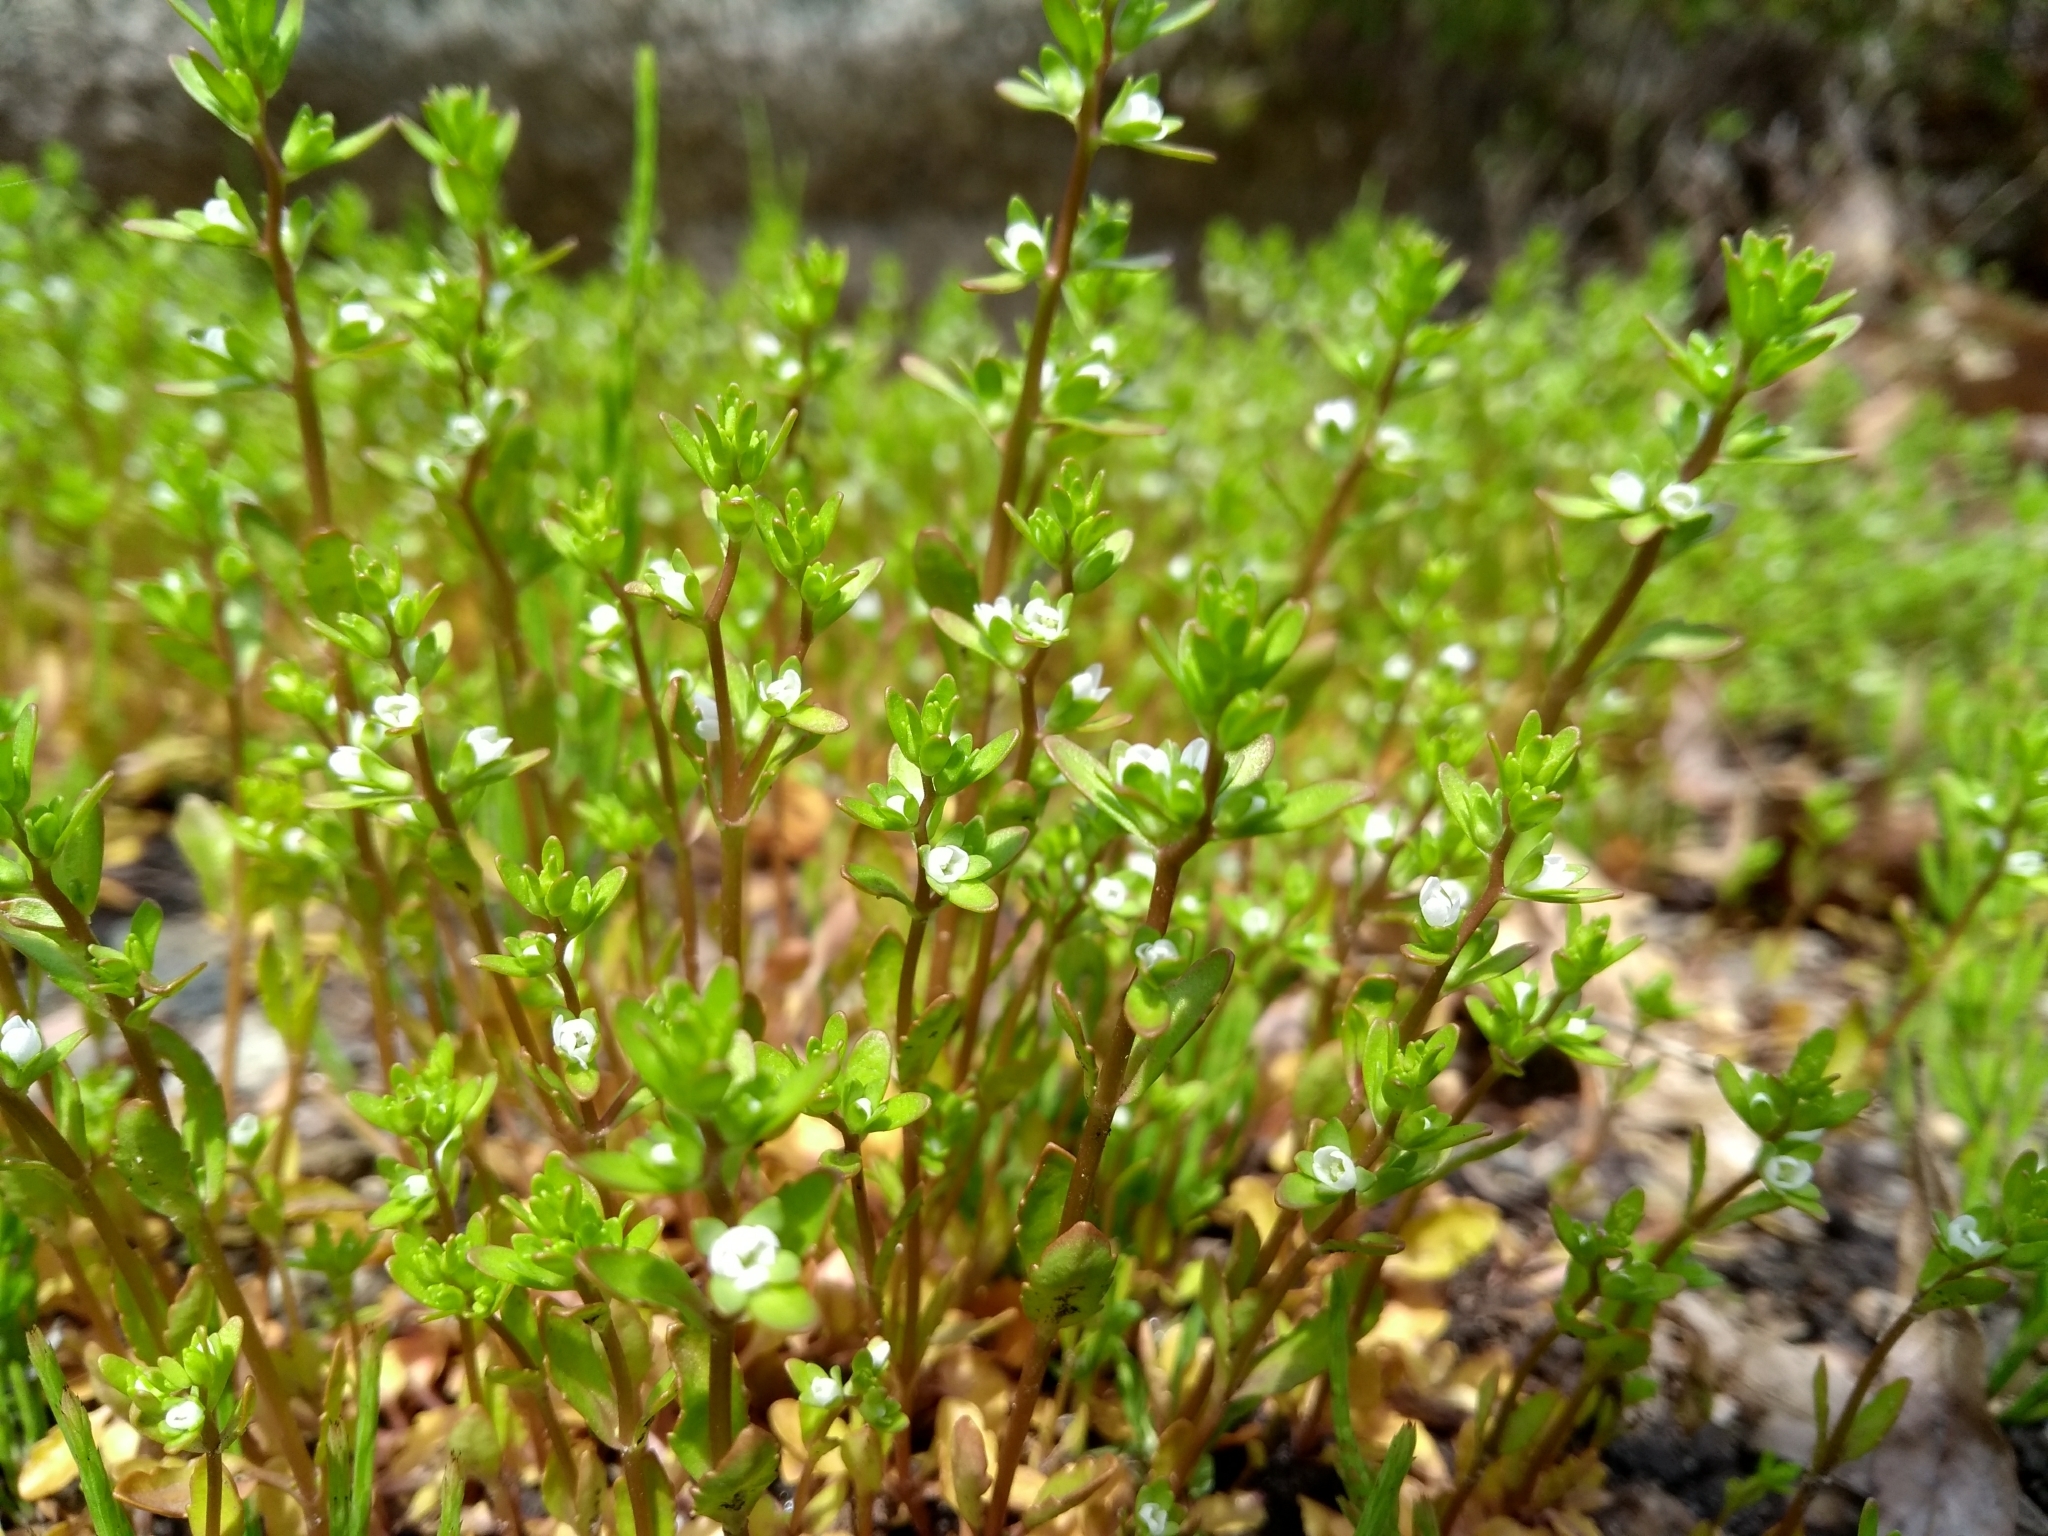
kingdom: Plantae
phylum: Tracheophyta
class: Magnoliopsida
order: Lamiales
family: Plantaginaceae
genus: Veronica
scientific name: Veronica peregrina
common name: Neckweed
